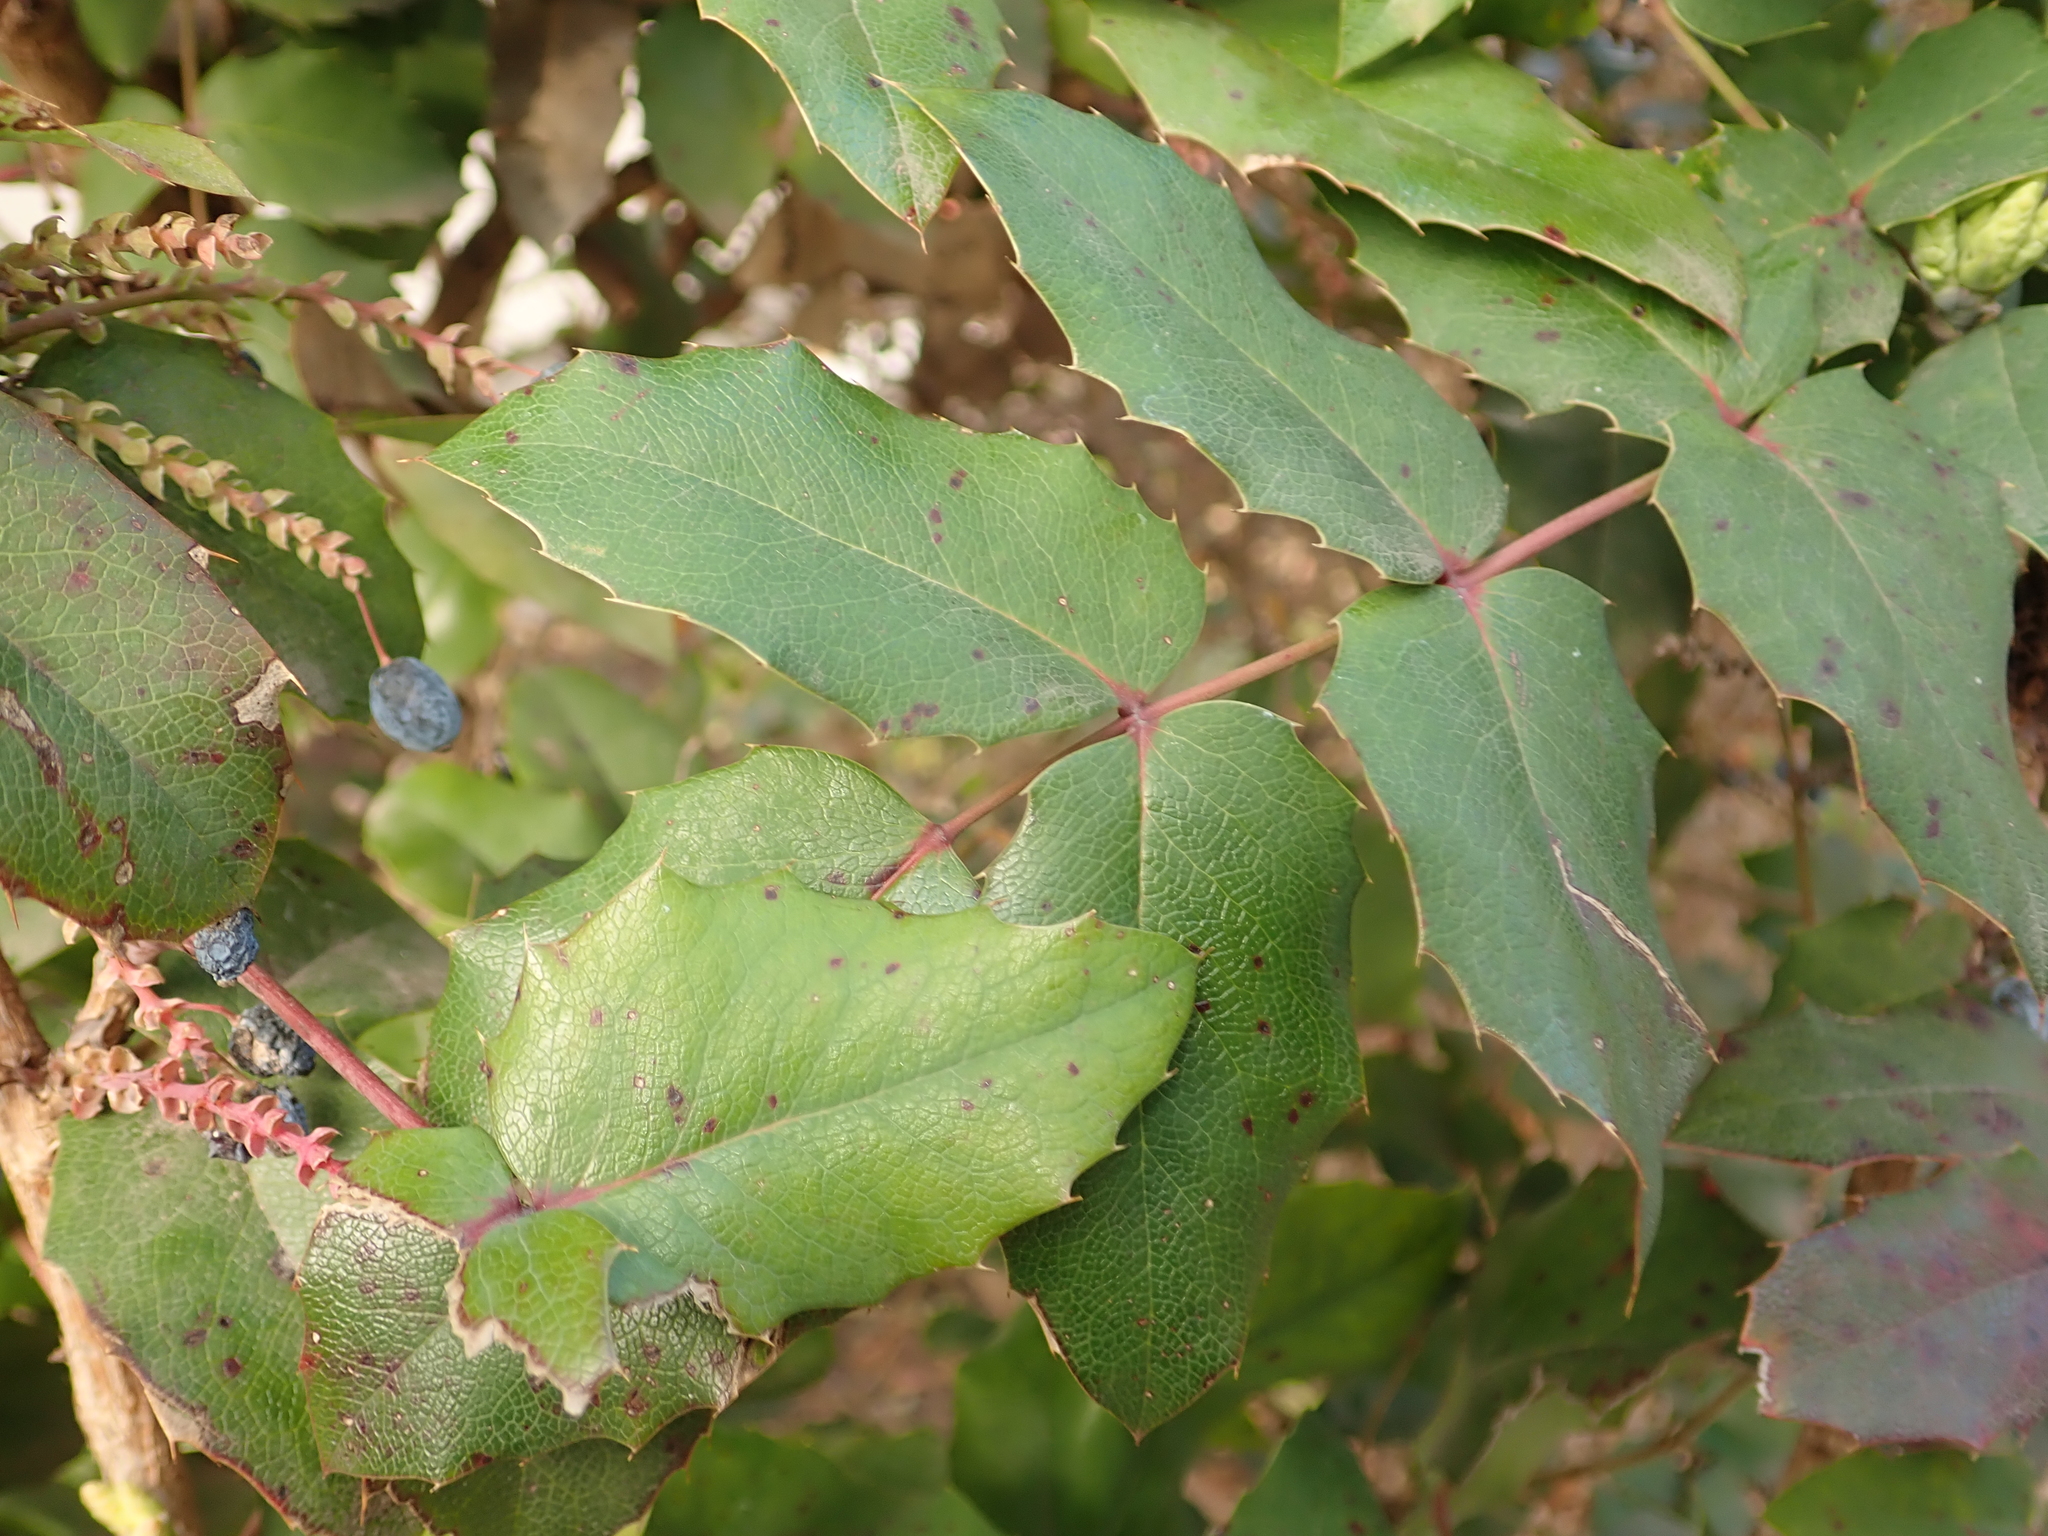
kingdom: Plantae
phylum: Tracheophyta
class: Magnoliopsida
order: Ranunculales
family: Berberidaceae
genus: Mahonia
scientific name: Mahonia aquifolium
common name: Oregon-grape
